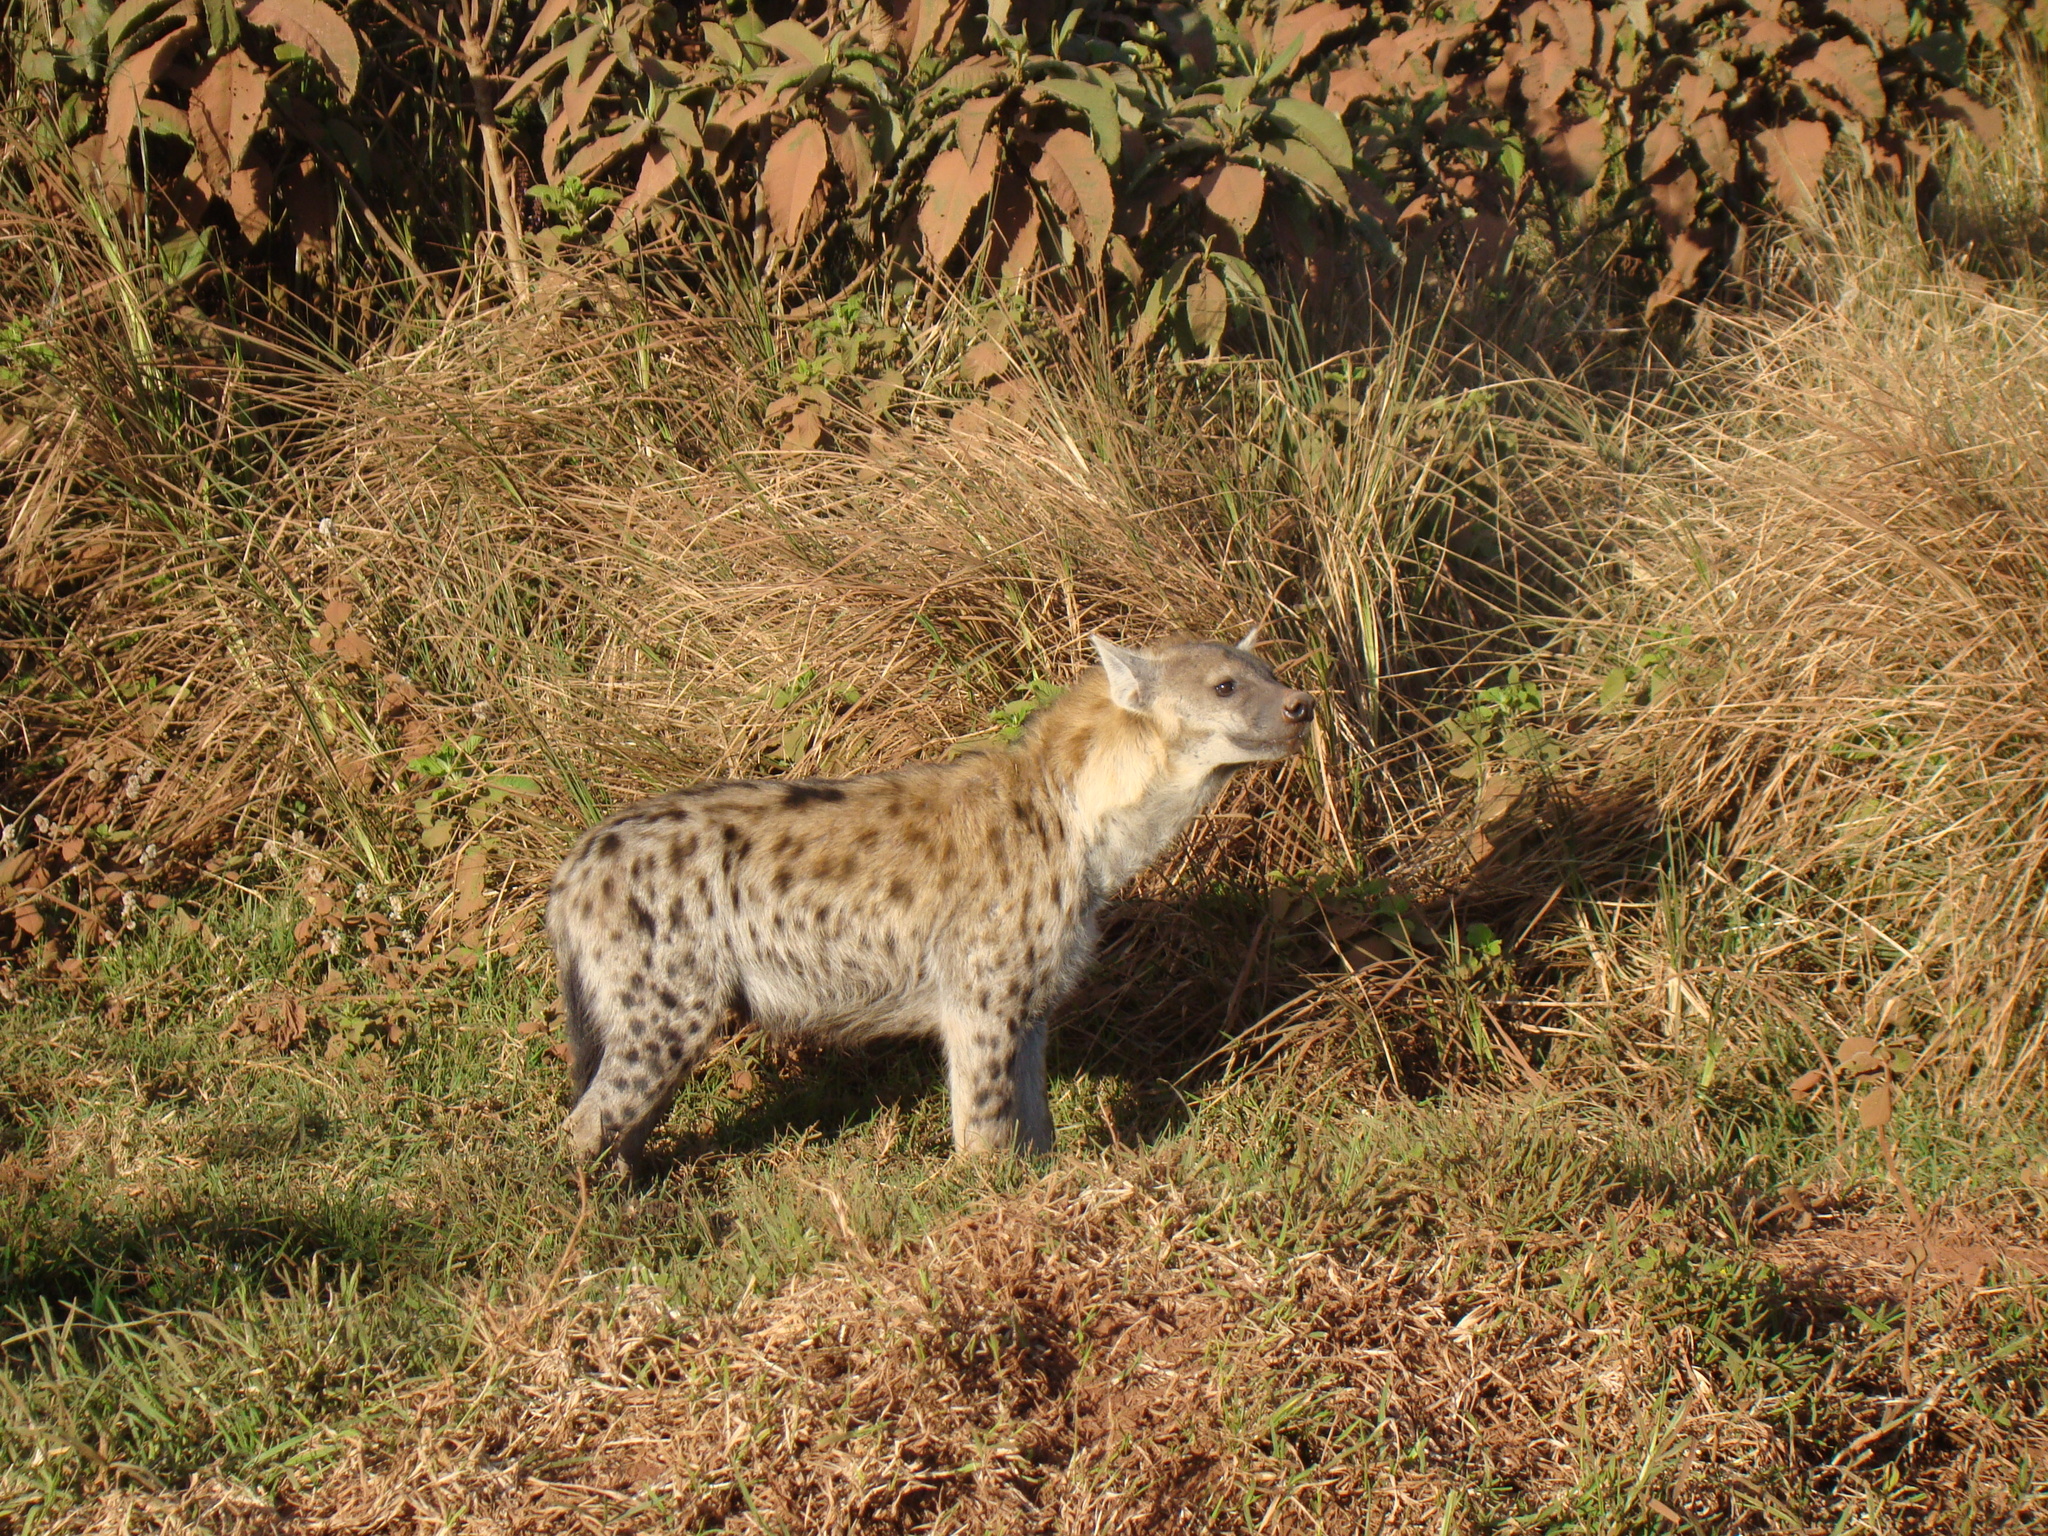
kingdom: Animalia
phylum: Chordata
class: Mammalia
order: Carnivora
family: Hyaenidae
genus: Crocuta
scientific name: Crocuta crocuta
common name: Spotted hyaena
